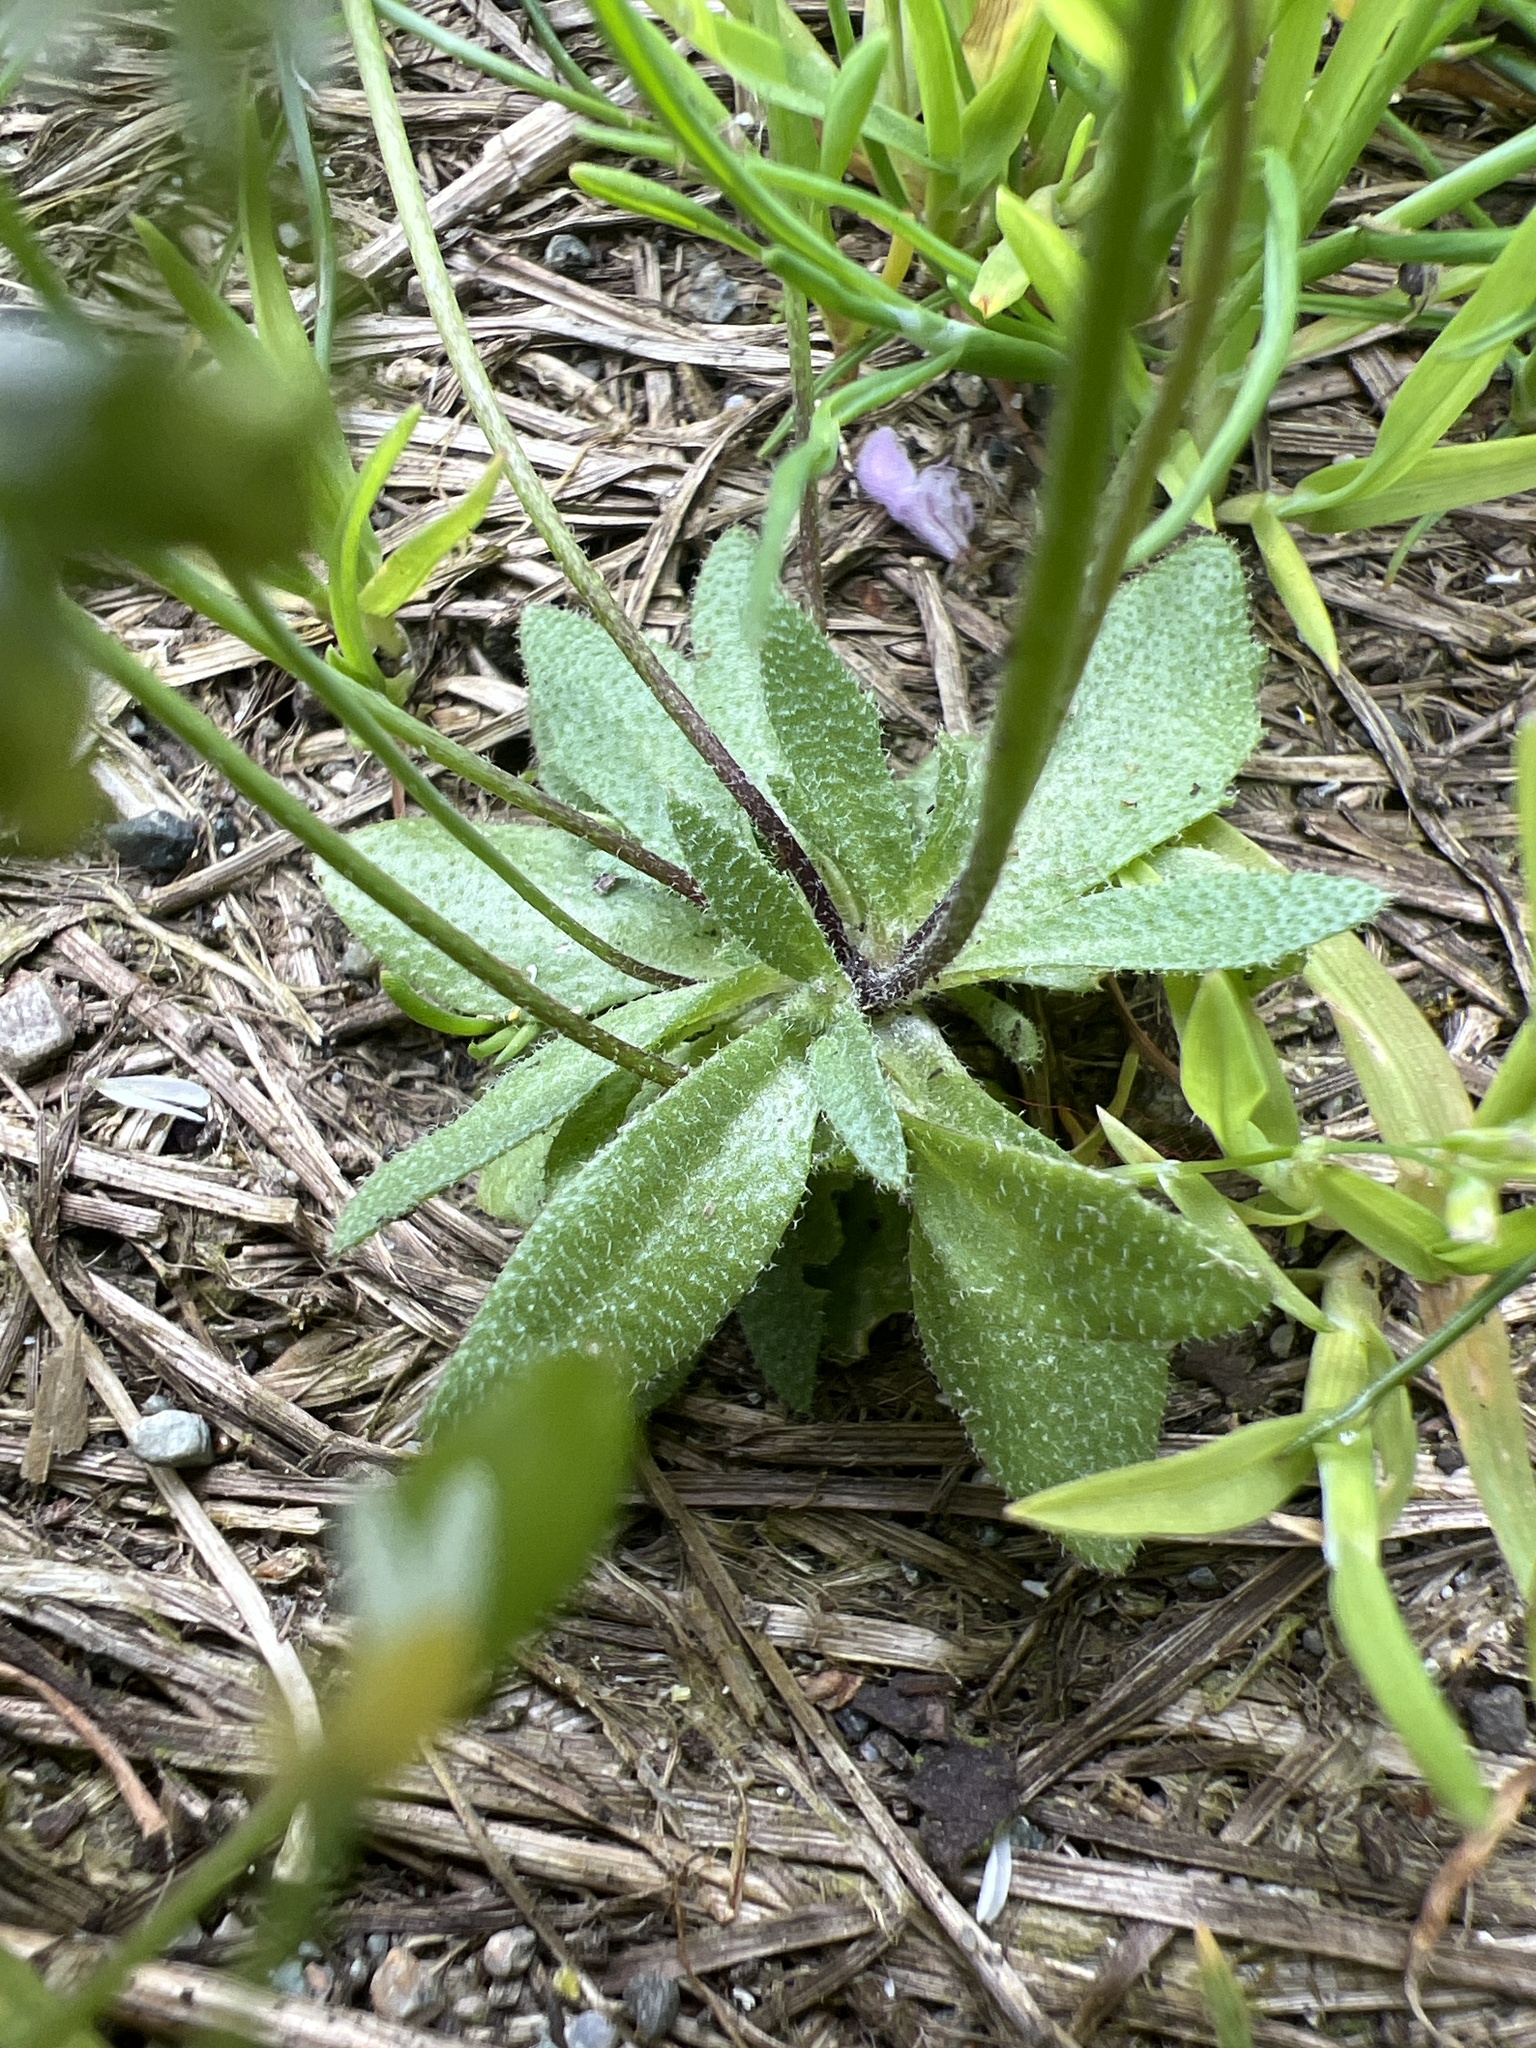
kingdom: Plantae
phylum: Tracheophyta
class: Magnoliopsida
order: Brassicales
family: Brassicaceae
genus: Draba
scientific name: Draba verna
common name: Spring draba
